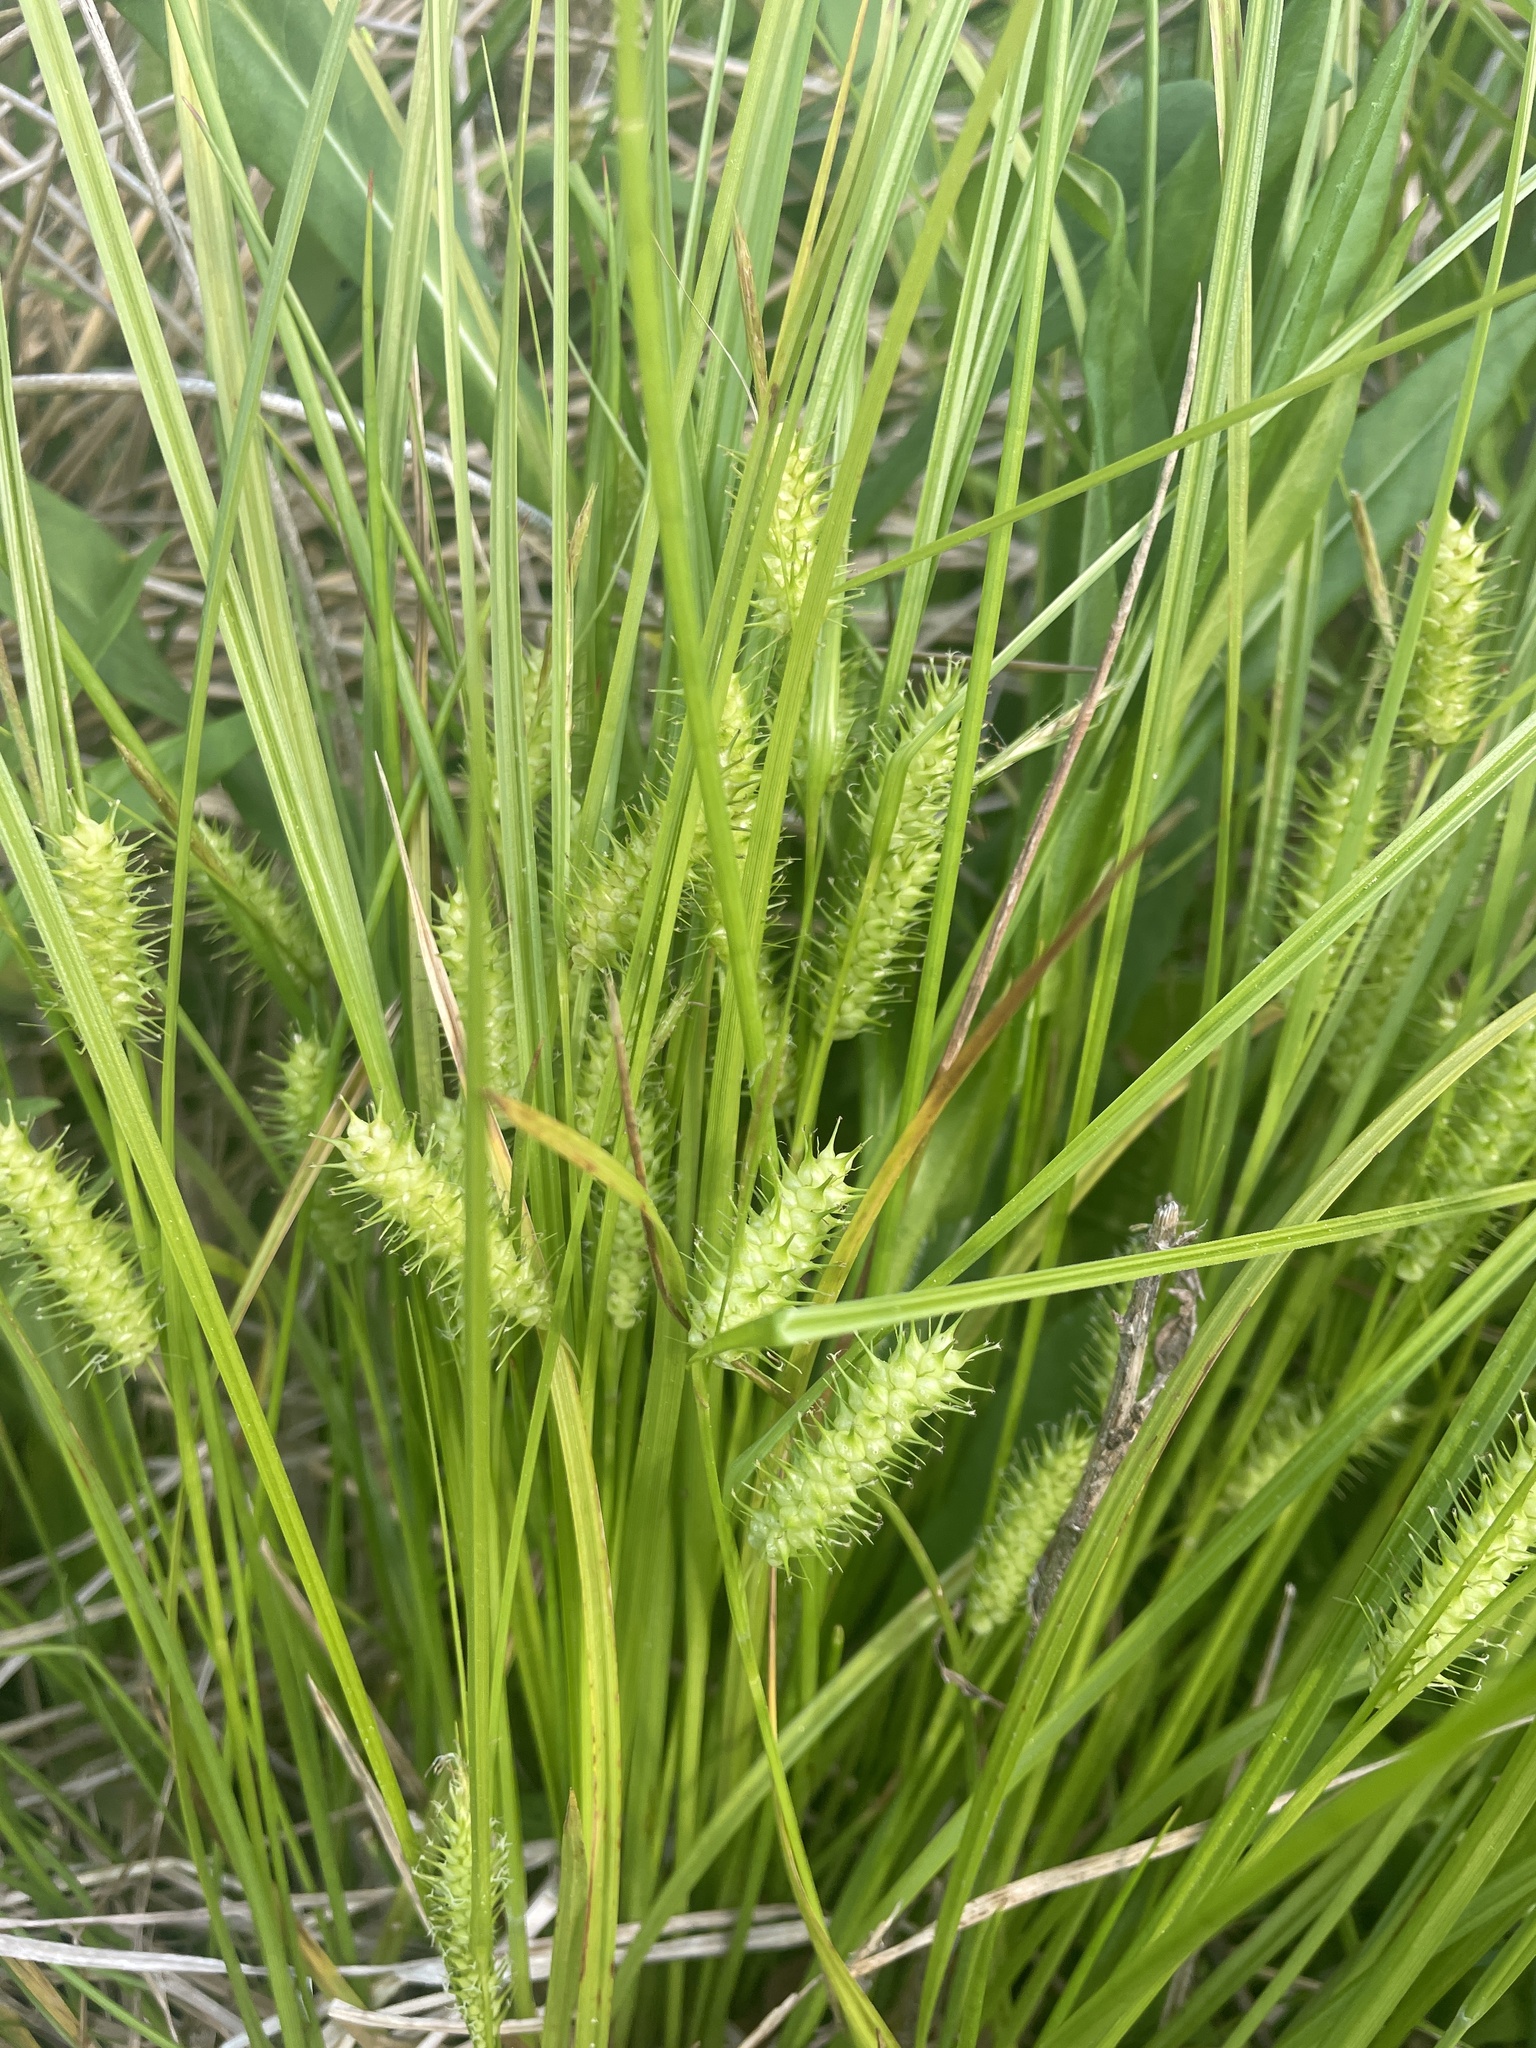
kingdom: Plantae
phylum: Tracheophyta
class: Liliopsida
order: Poales
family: Cyperaceae
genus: Carex
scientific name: Carex baileyi
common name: Bailey's sedge
